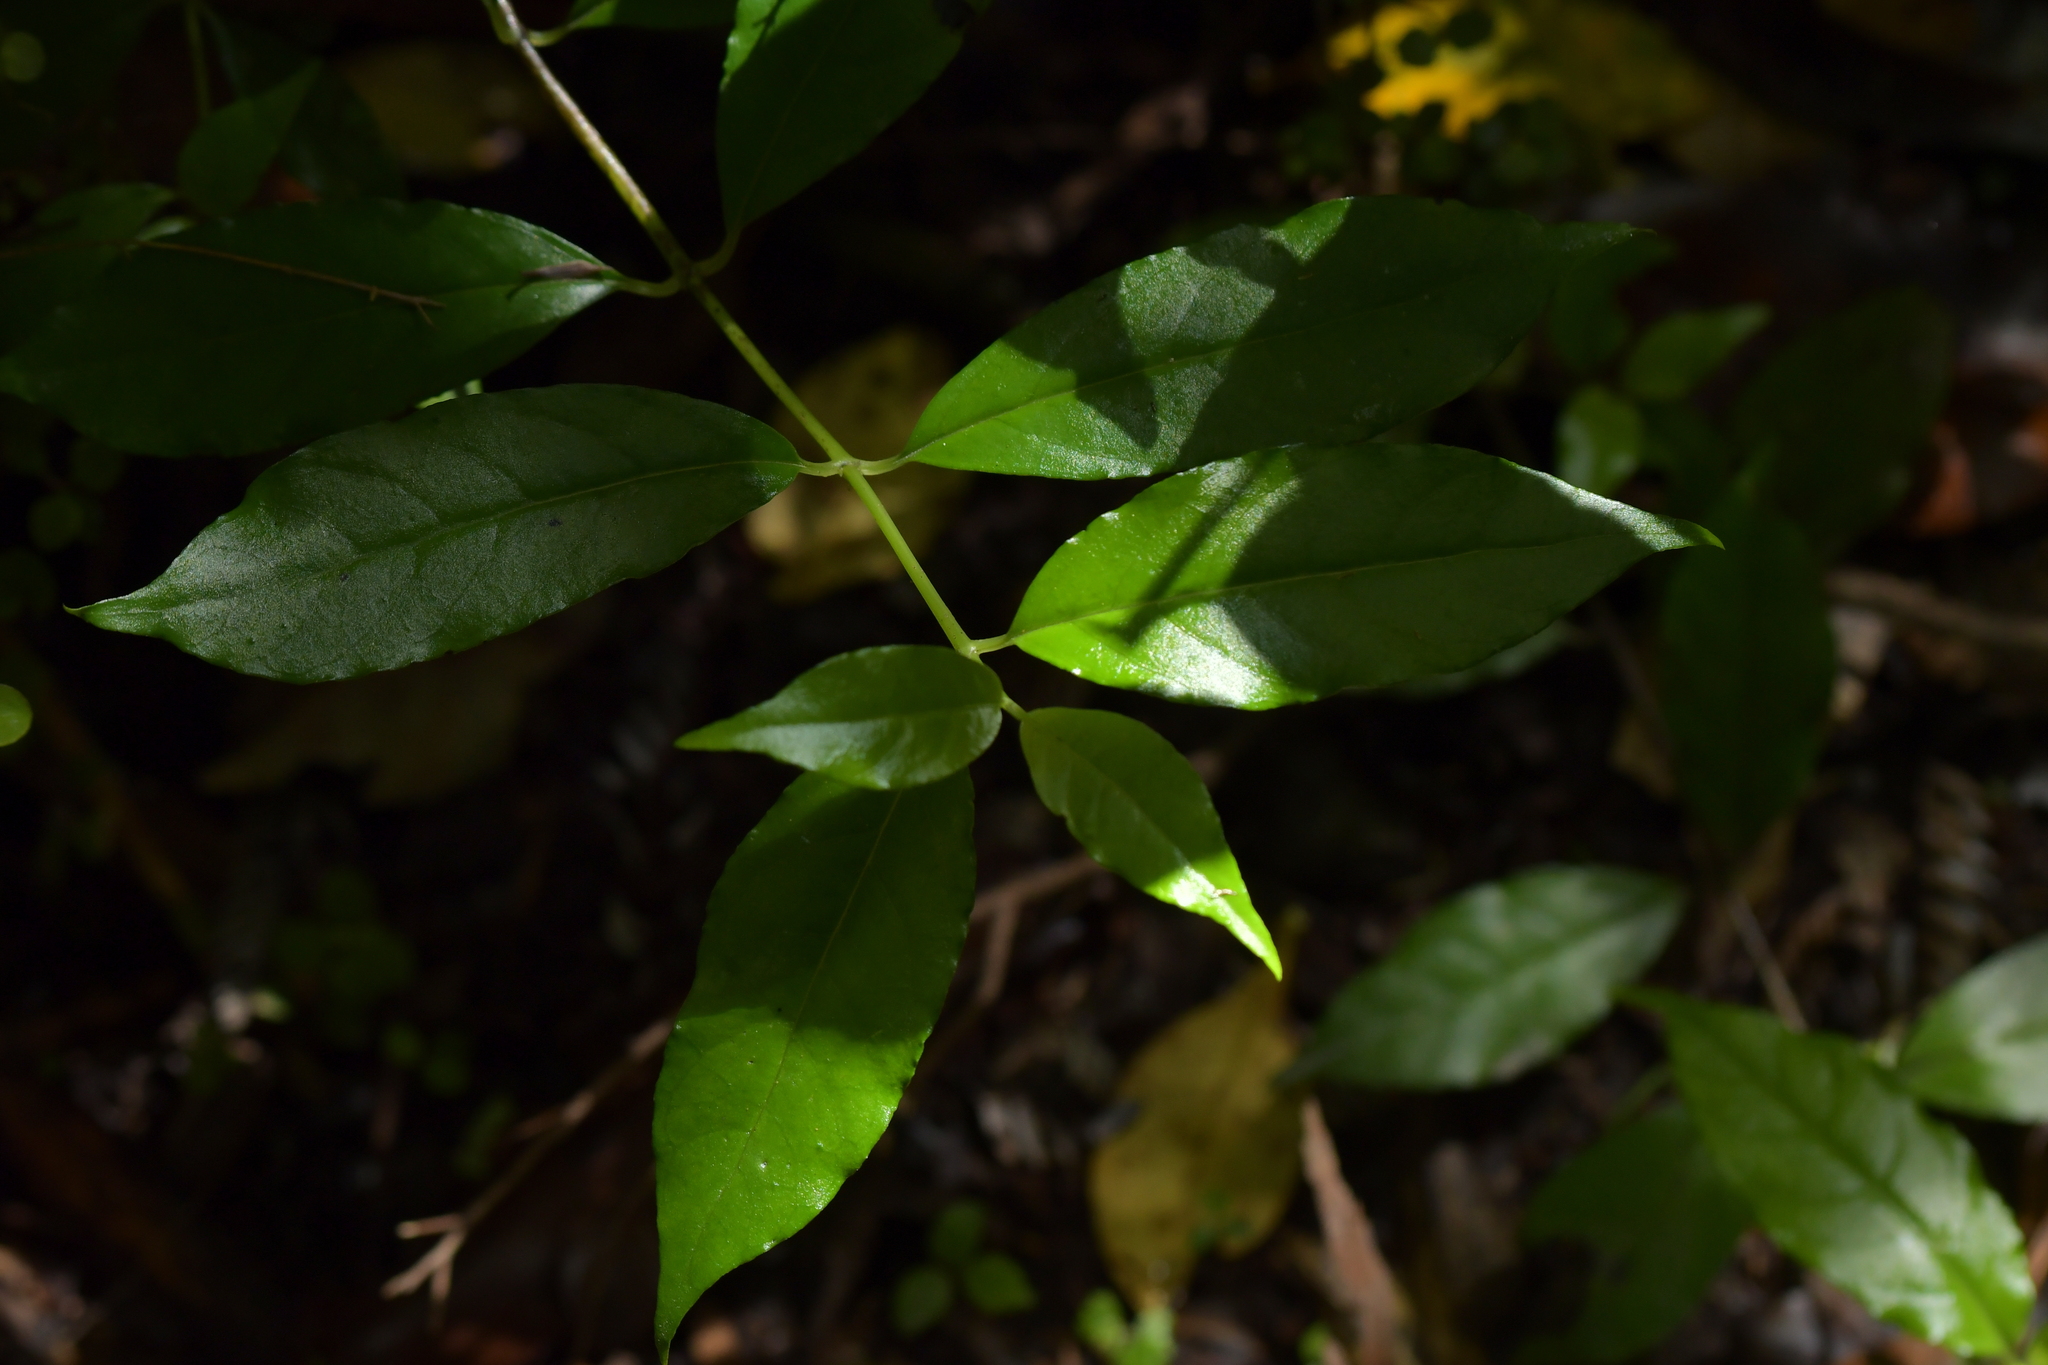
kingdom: Plantae
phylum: Tracheophyta
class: Magnoliopsida
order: Gentianales
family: Loganiaceae
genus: Geniostoma
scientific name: Geniostoma ligustrifolium
